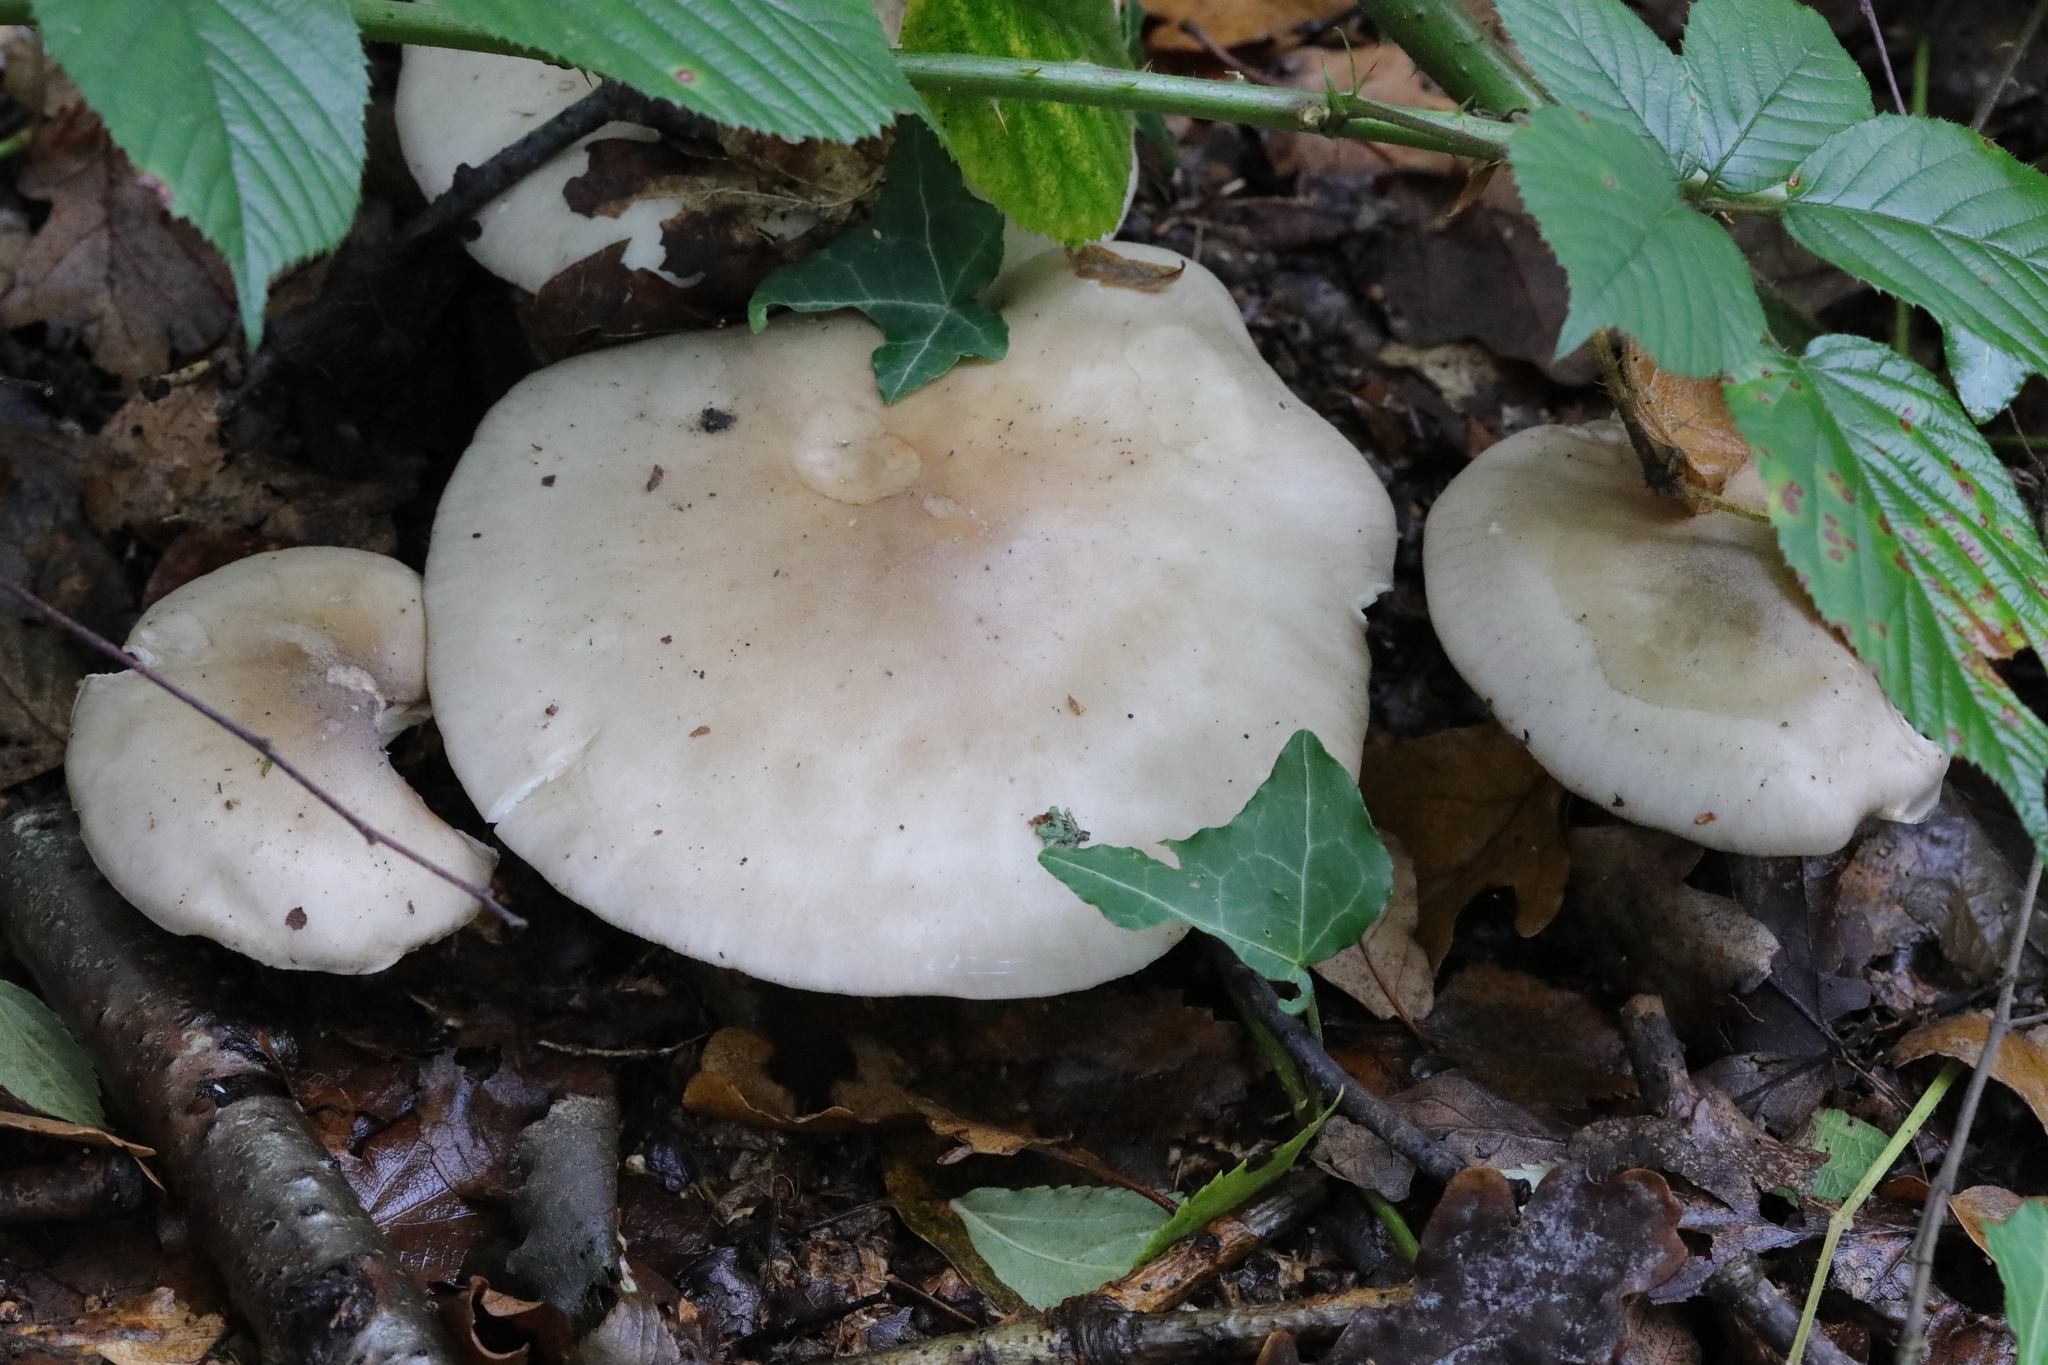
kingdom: Fungi
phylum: Basidiomycota
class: Agaricomycetes
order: Agaricales
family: Tricholomataceae
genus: Clitocybe
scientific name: Clitocybe nebularis
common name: Clouded agaric
